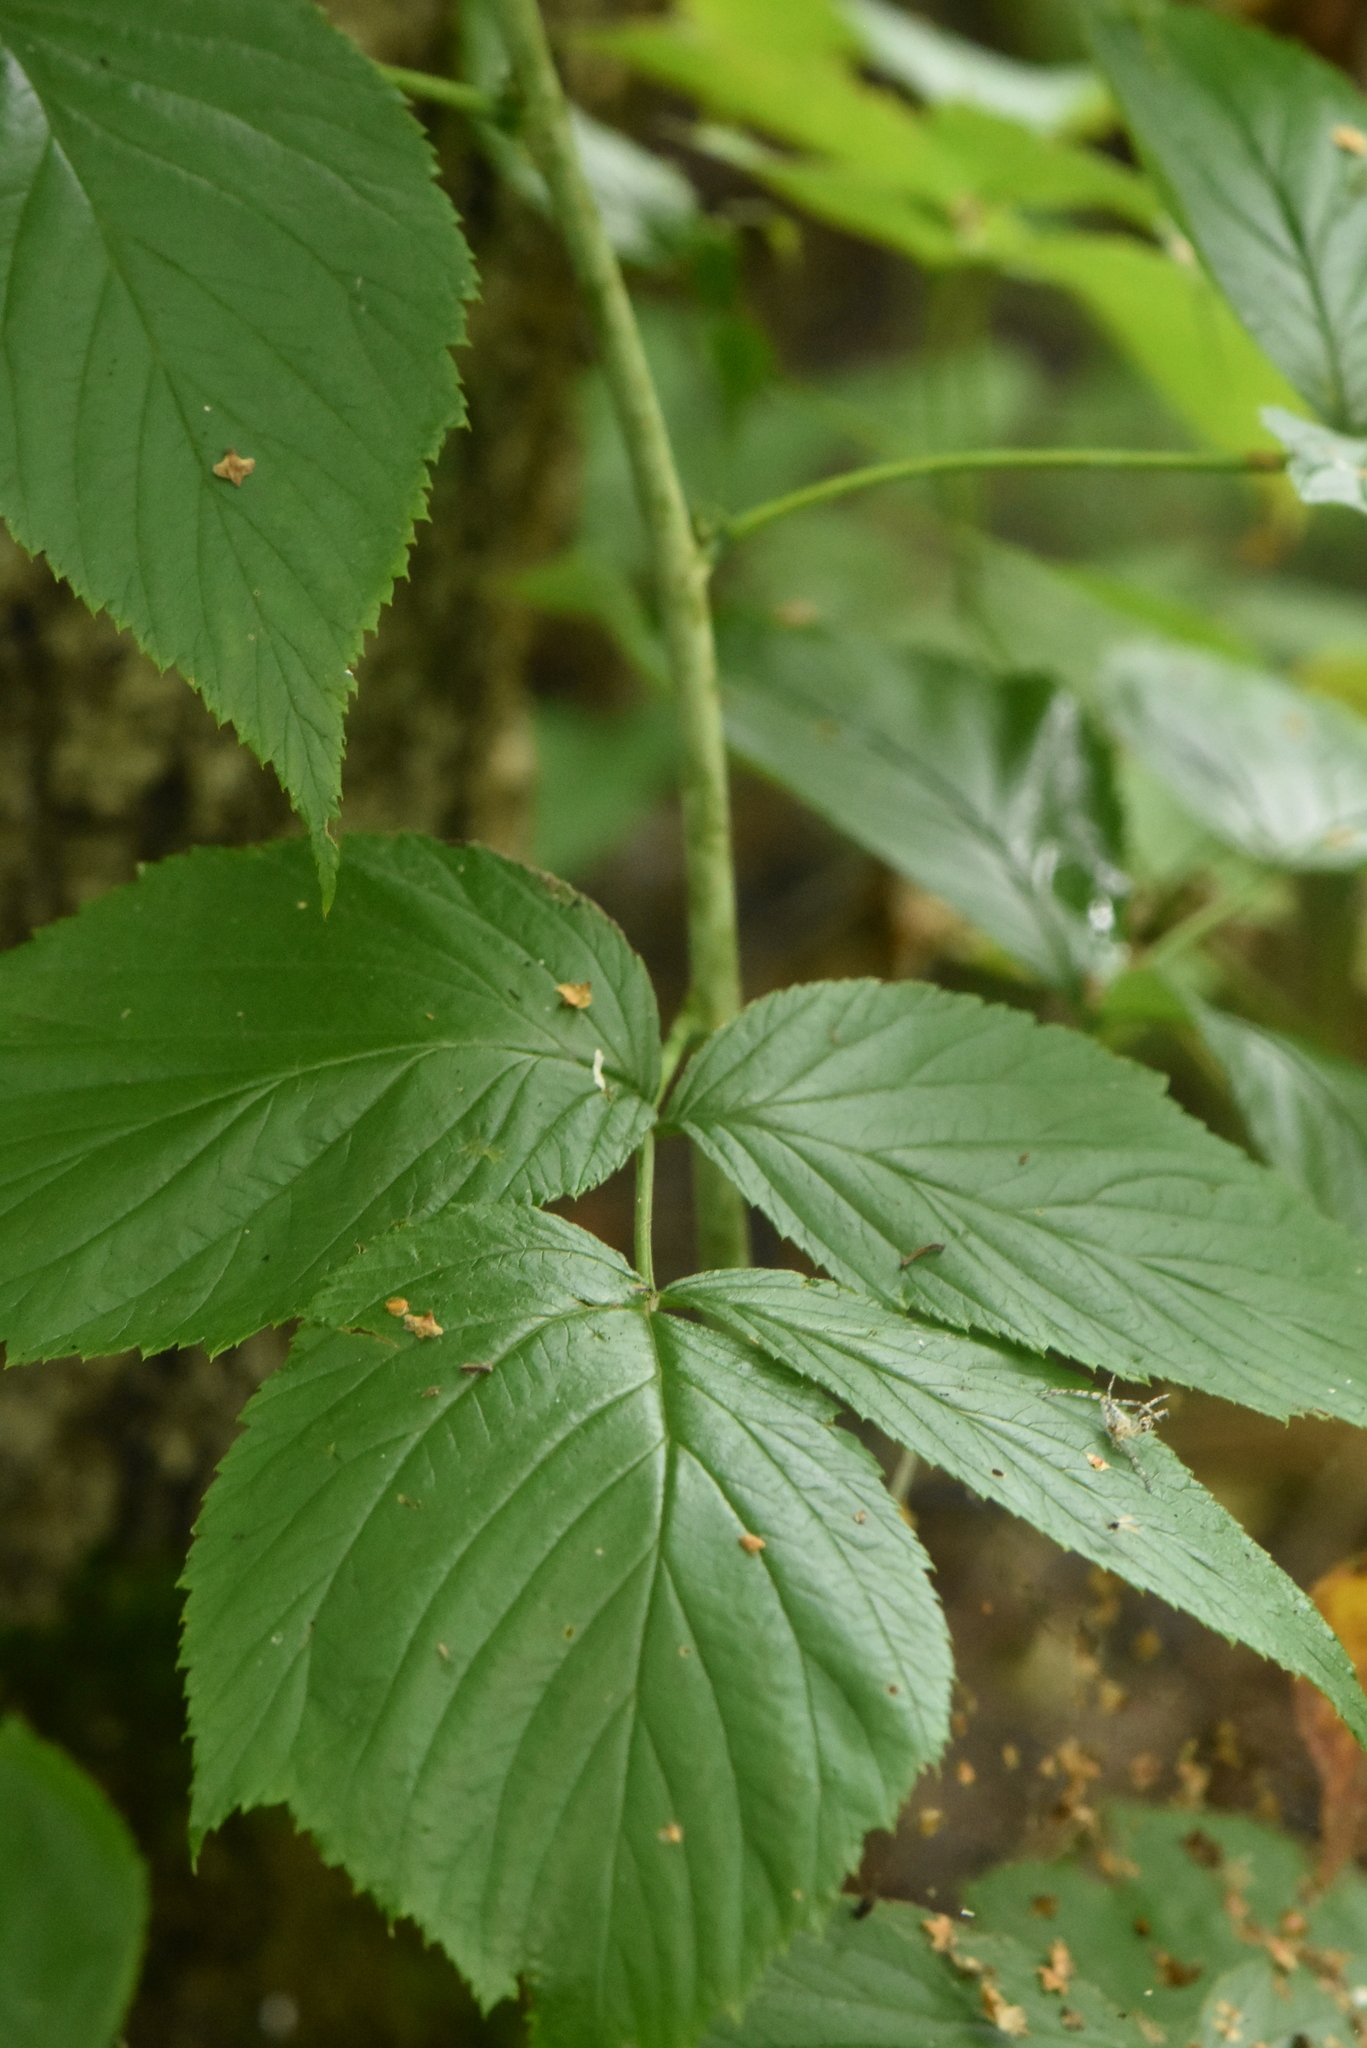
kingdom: Plantae
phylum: Tracheophyta
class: Magnoliopsida
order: Rosales
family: Rosaceae
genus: Rubus
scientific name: Rubus idaeus
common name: Raspberry
